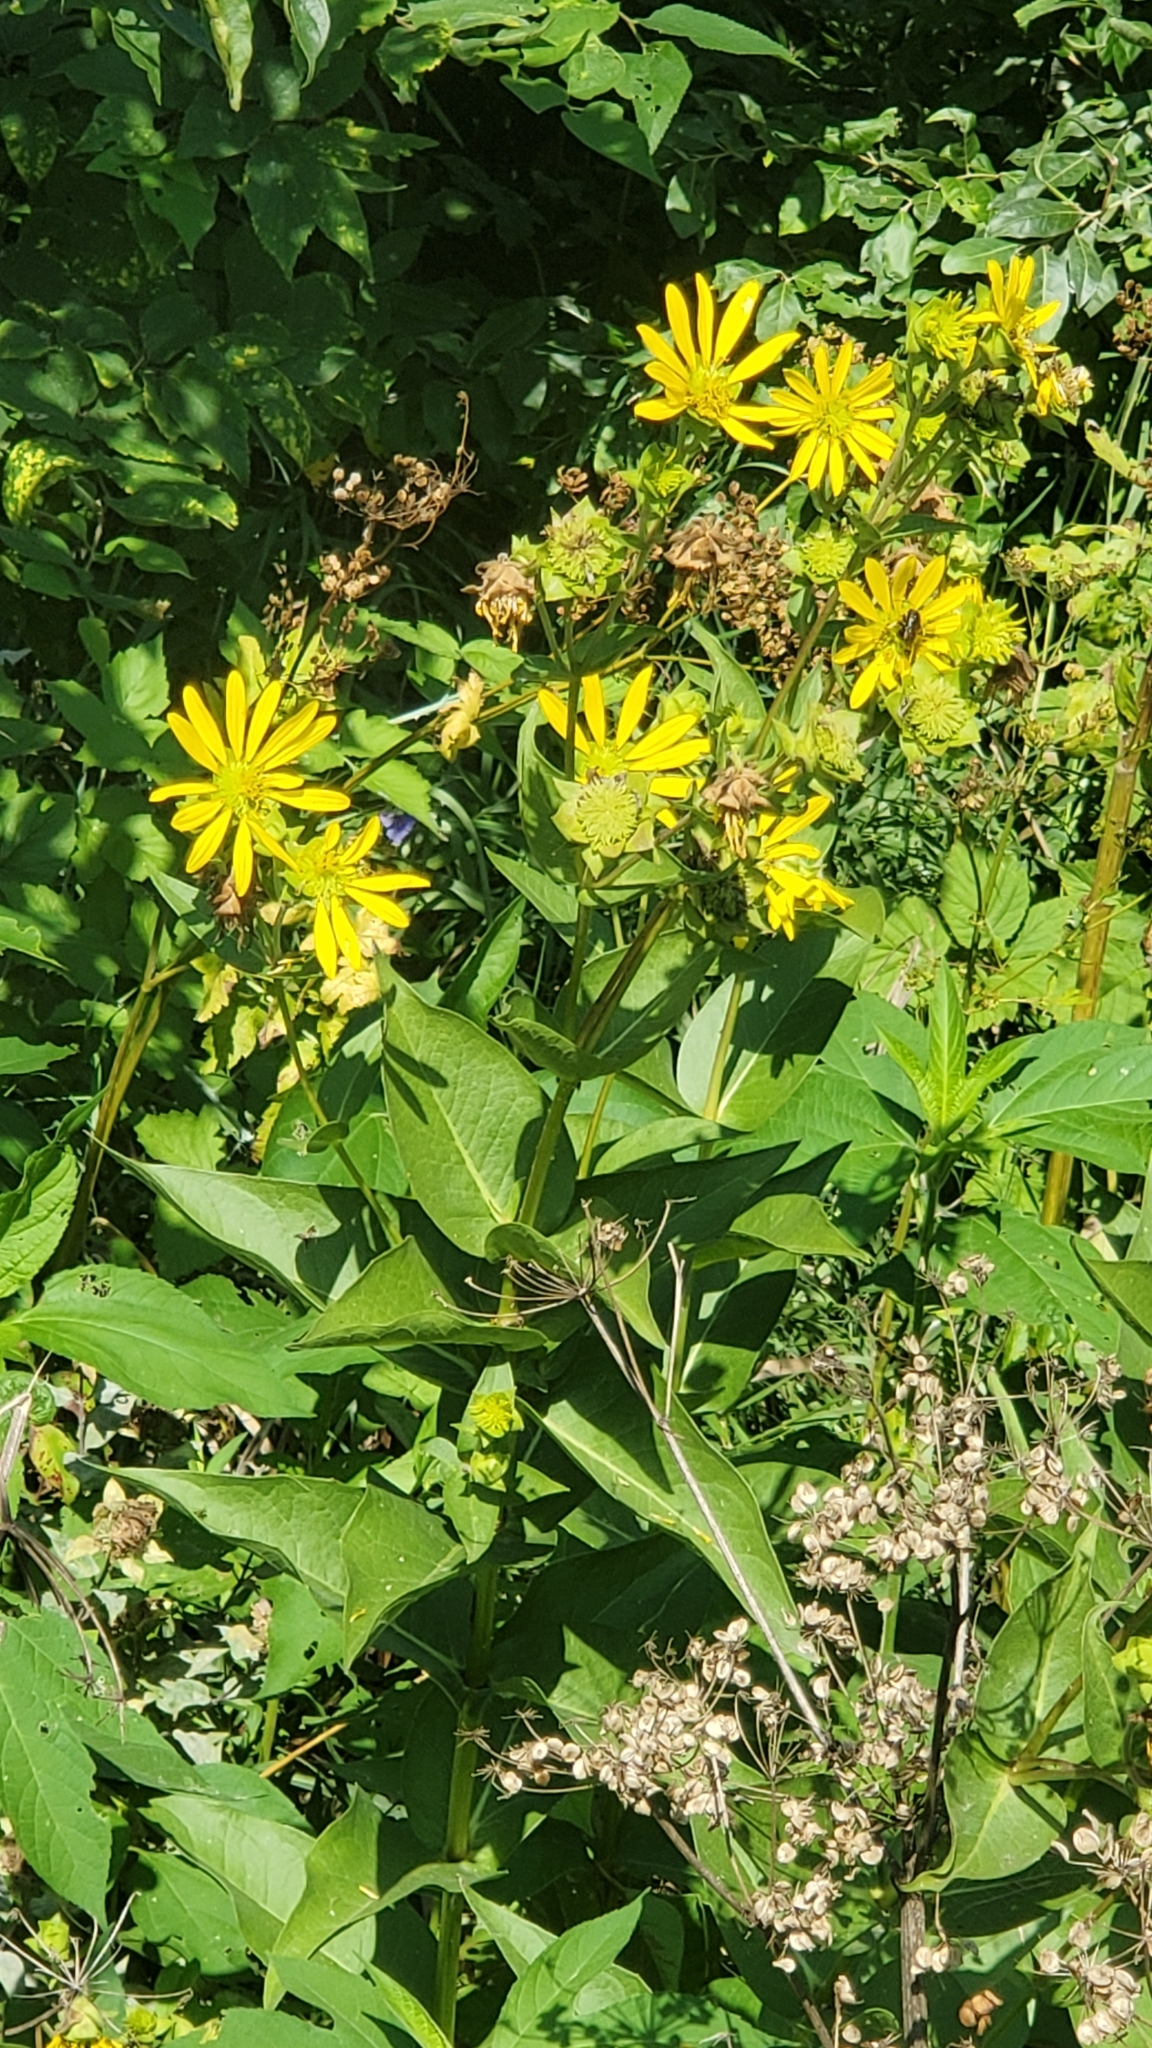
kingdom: Plantae
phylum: Tracheophyta
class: Magnoliopsida
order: Asterales
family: Asteraceae
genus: Silphium
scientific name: Silphium integrifolium
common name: Whole-leaf rosinweed
